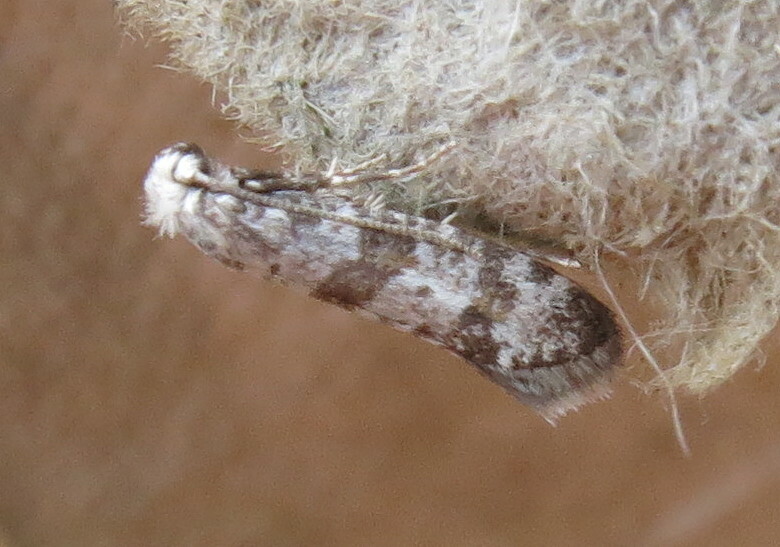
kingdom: Animalia
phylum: Arthropoda
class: Insecta
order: Lepidoptera
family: Yponomeutidae
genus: Scythropia
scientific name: Scythropia crataegella
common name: Hawthorn moth
